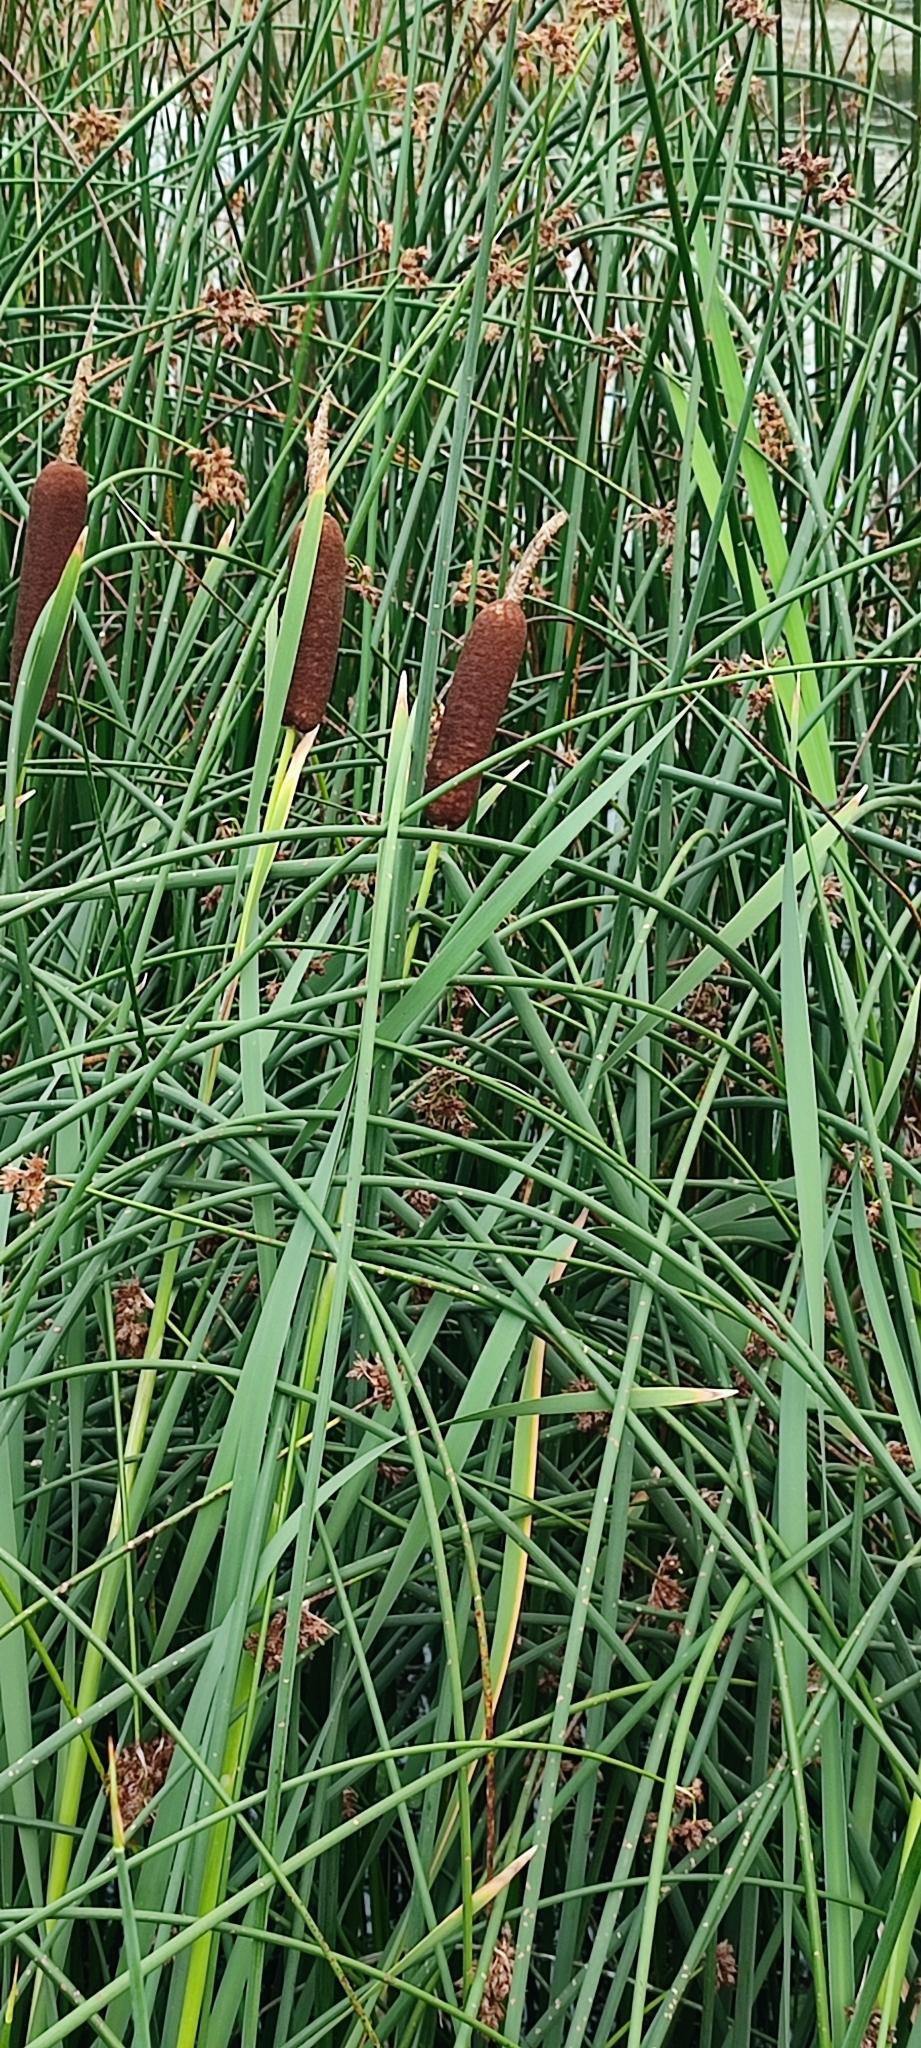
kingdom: Plantae
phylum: Tracheophyta
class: Liliopsida
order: Poales
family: Typhaceae
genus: Typha
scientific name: Typha latifolia
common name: Broadleaf cattail
